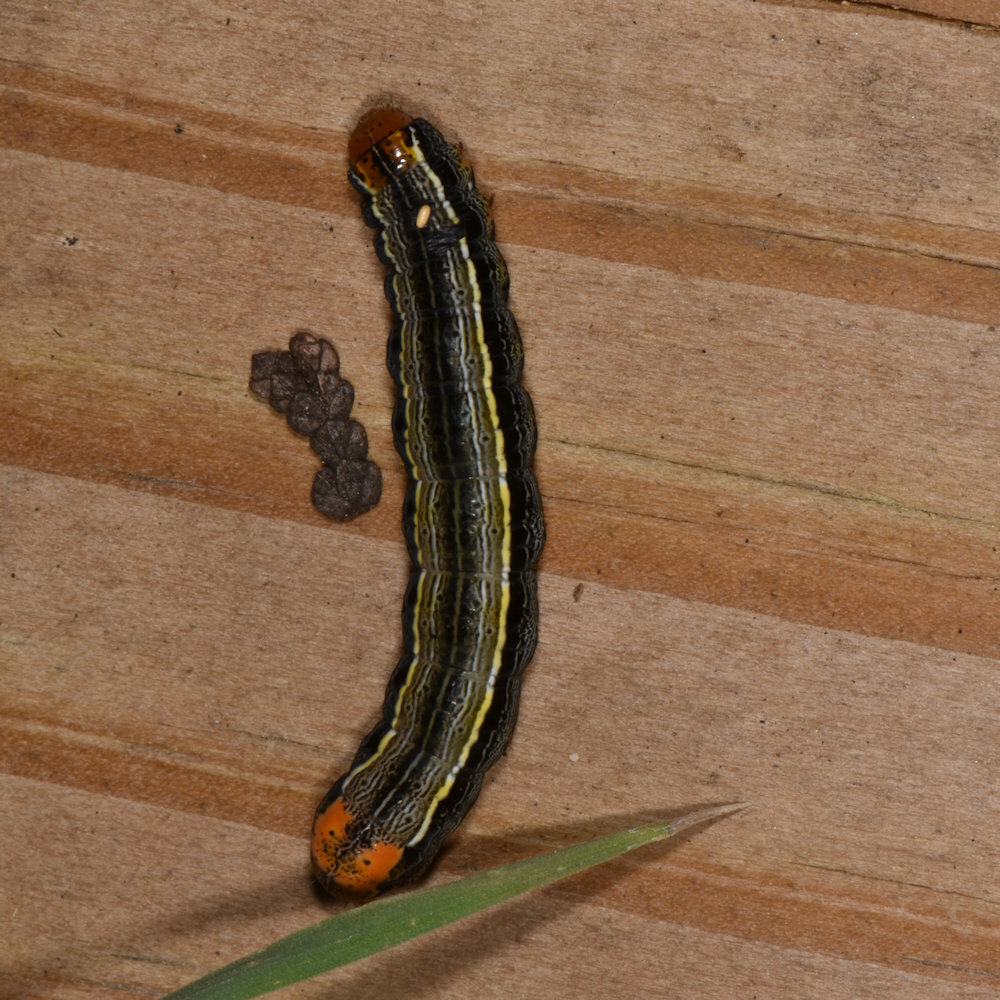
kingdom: Animalia
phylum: Arthropoda
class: Insecta
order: Lepidoptera
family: Noctuidae
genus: Magusa
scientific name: Magusa divaricata
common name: Orb narrow-winged moth
